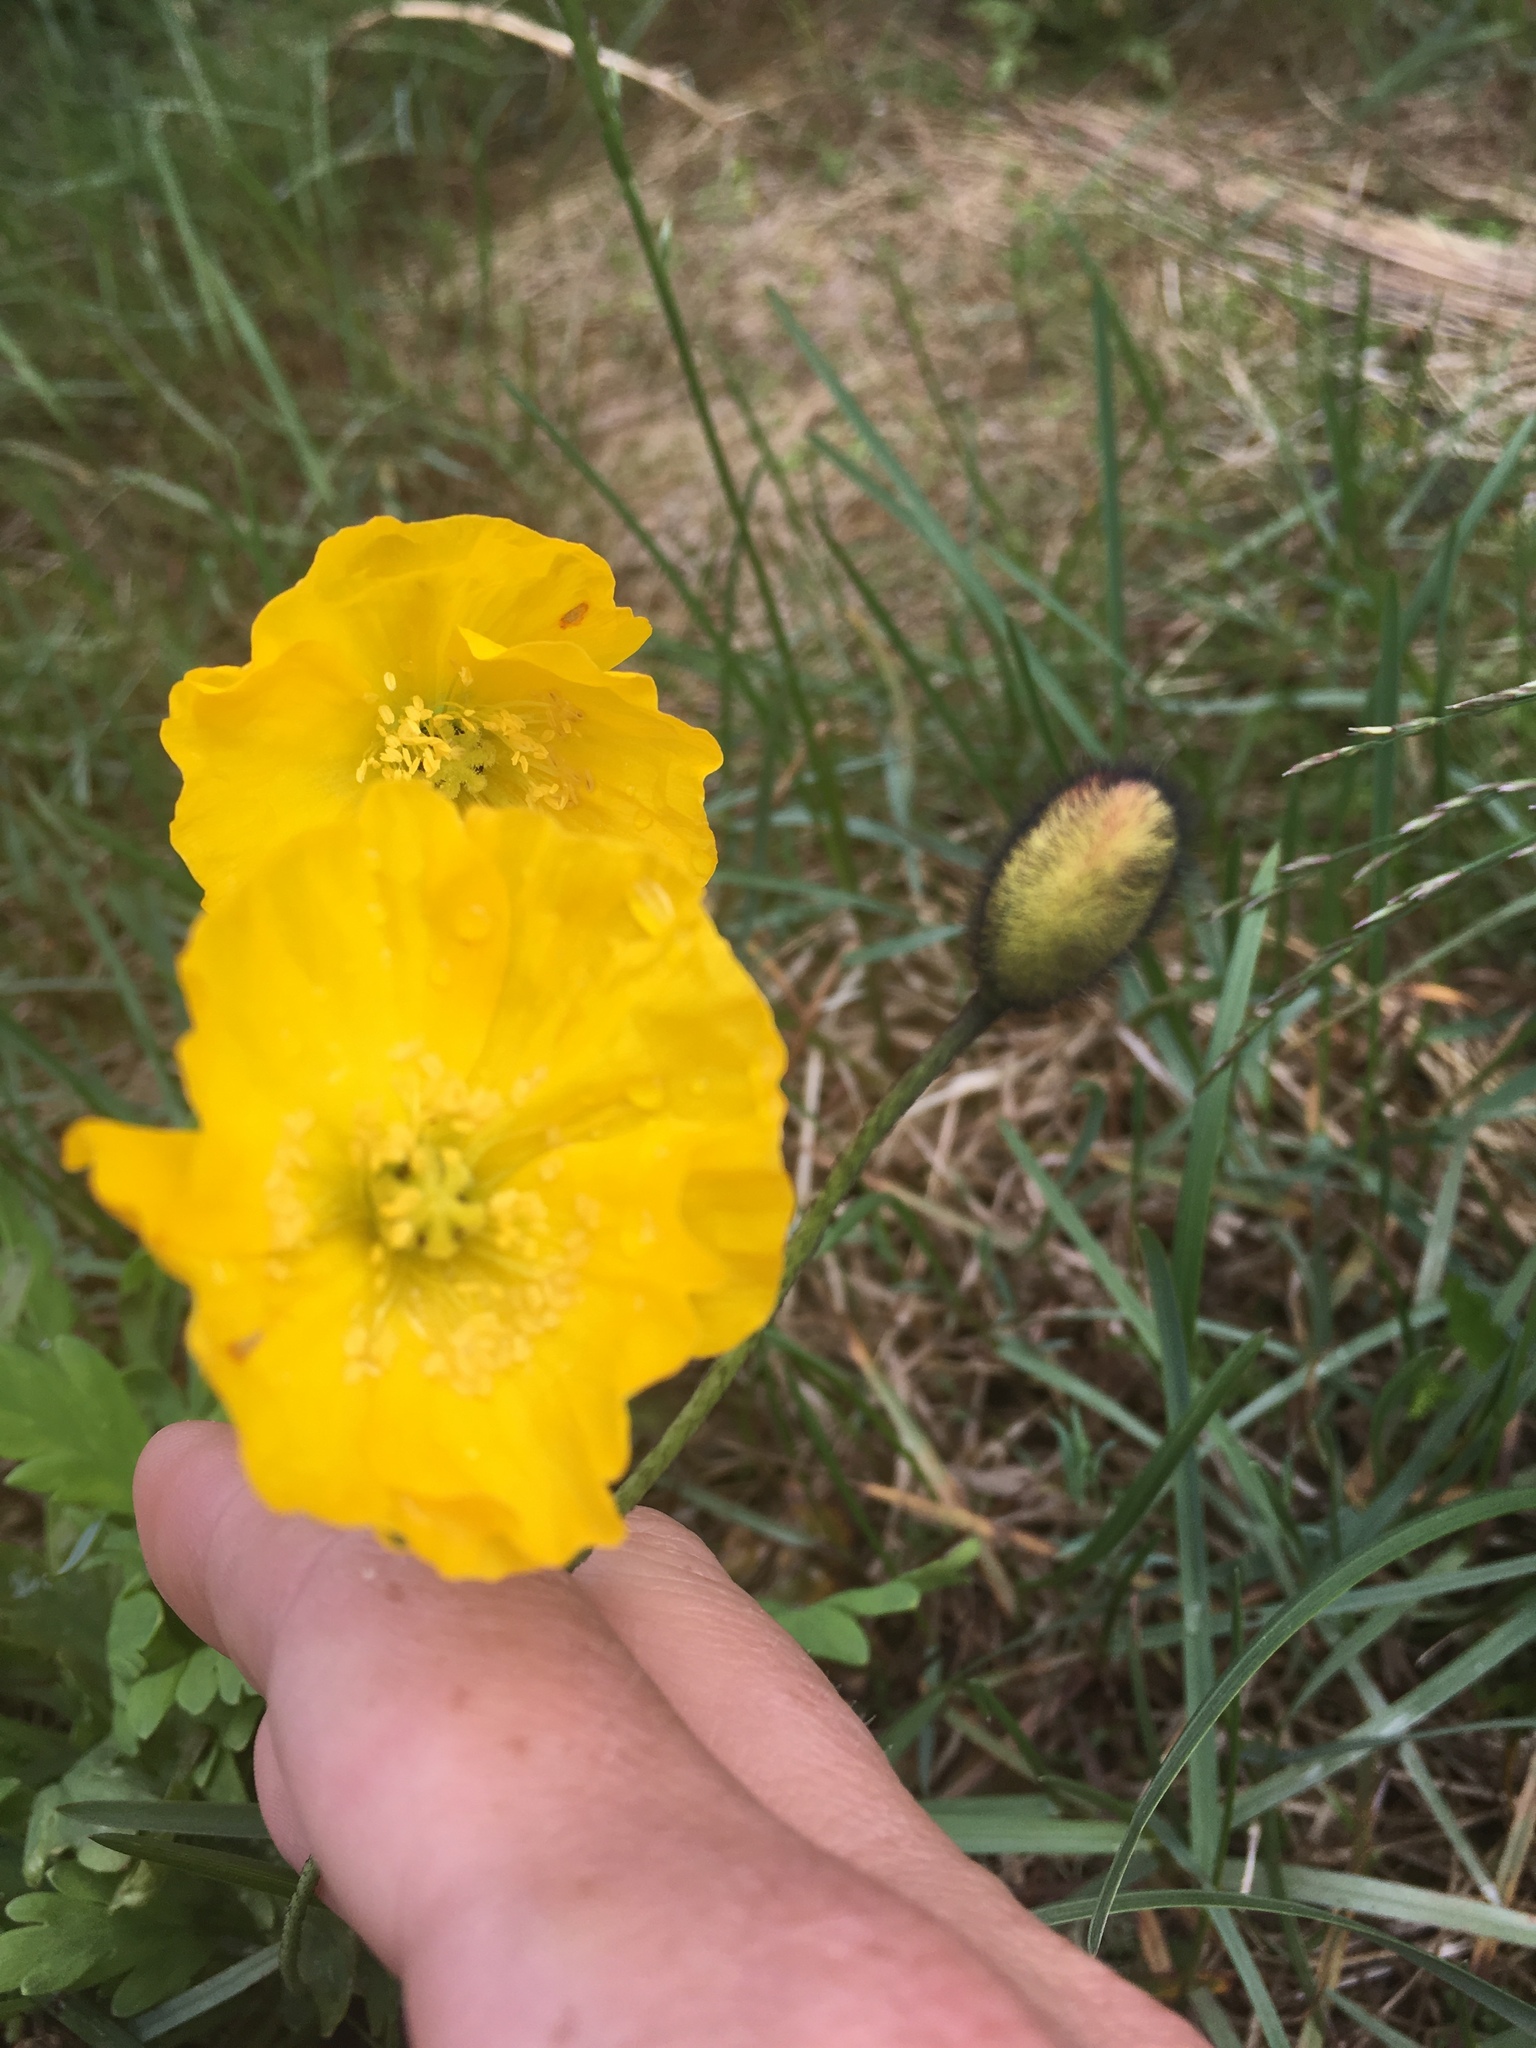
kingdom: Plantae
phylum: Tracheophyta
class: Magnoliopsida
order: Ranunculales
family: Papaveraceae
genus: Oreomecon
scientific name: Oreomecon
